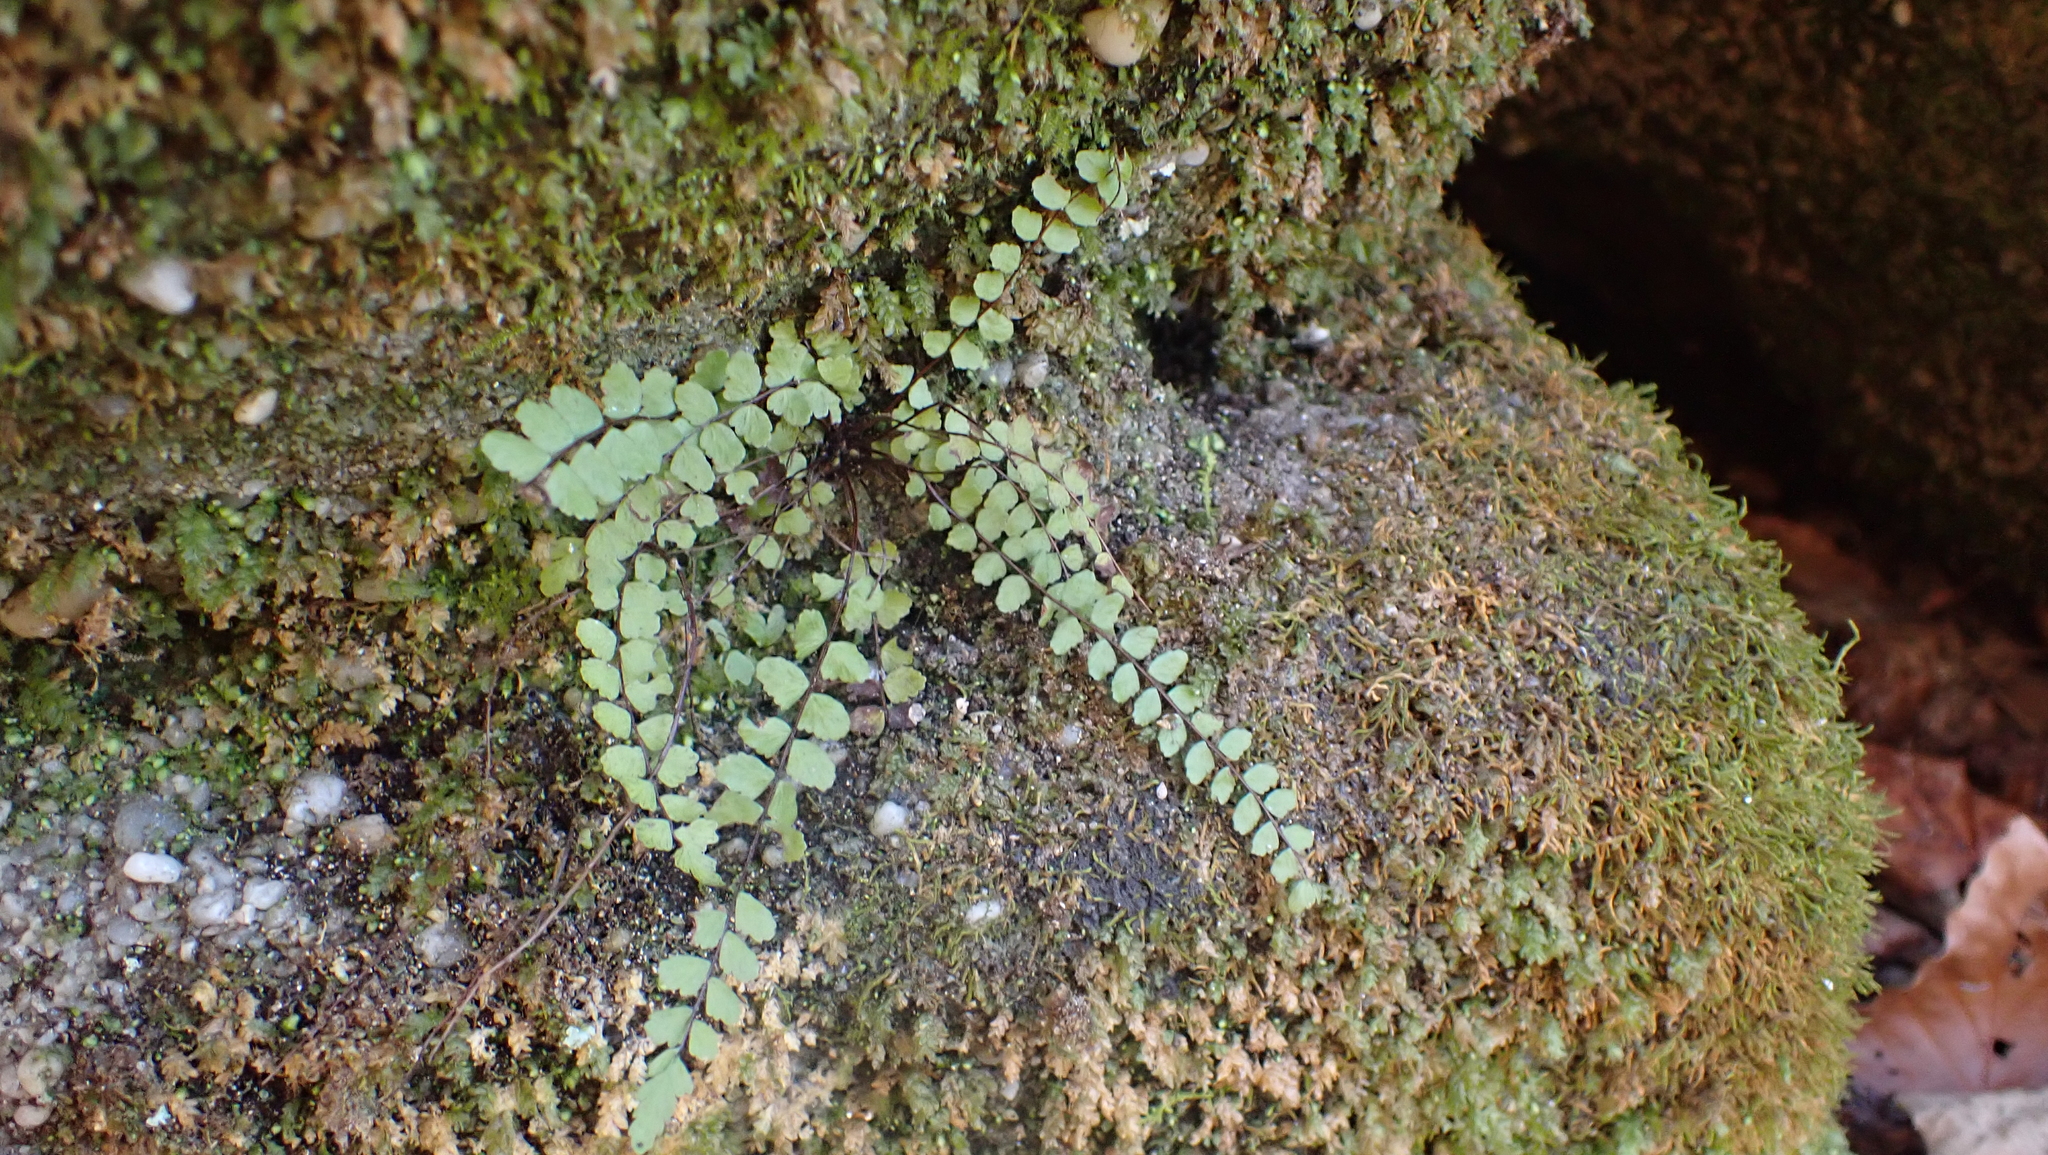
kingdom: Plantae
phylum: Tracheophyta
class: Polypodiopsida
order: Polypodiales
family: Aspleniaceae
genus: Asplenium
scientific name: Asplenium trichomanes
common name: Maidenhair spleenwort
